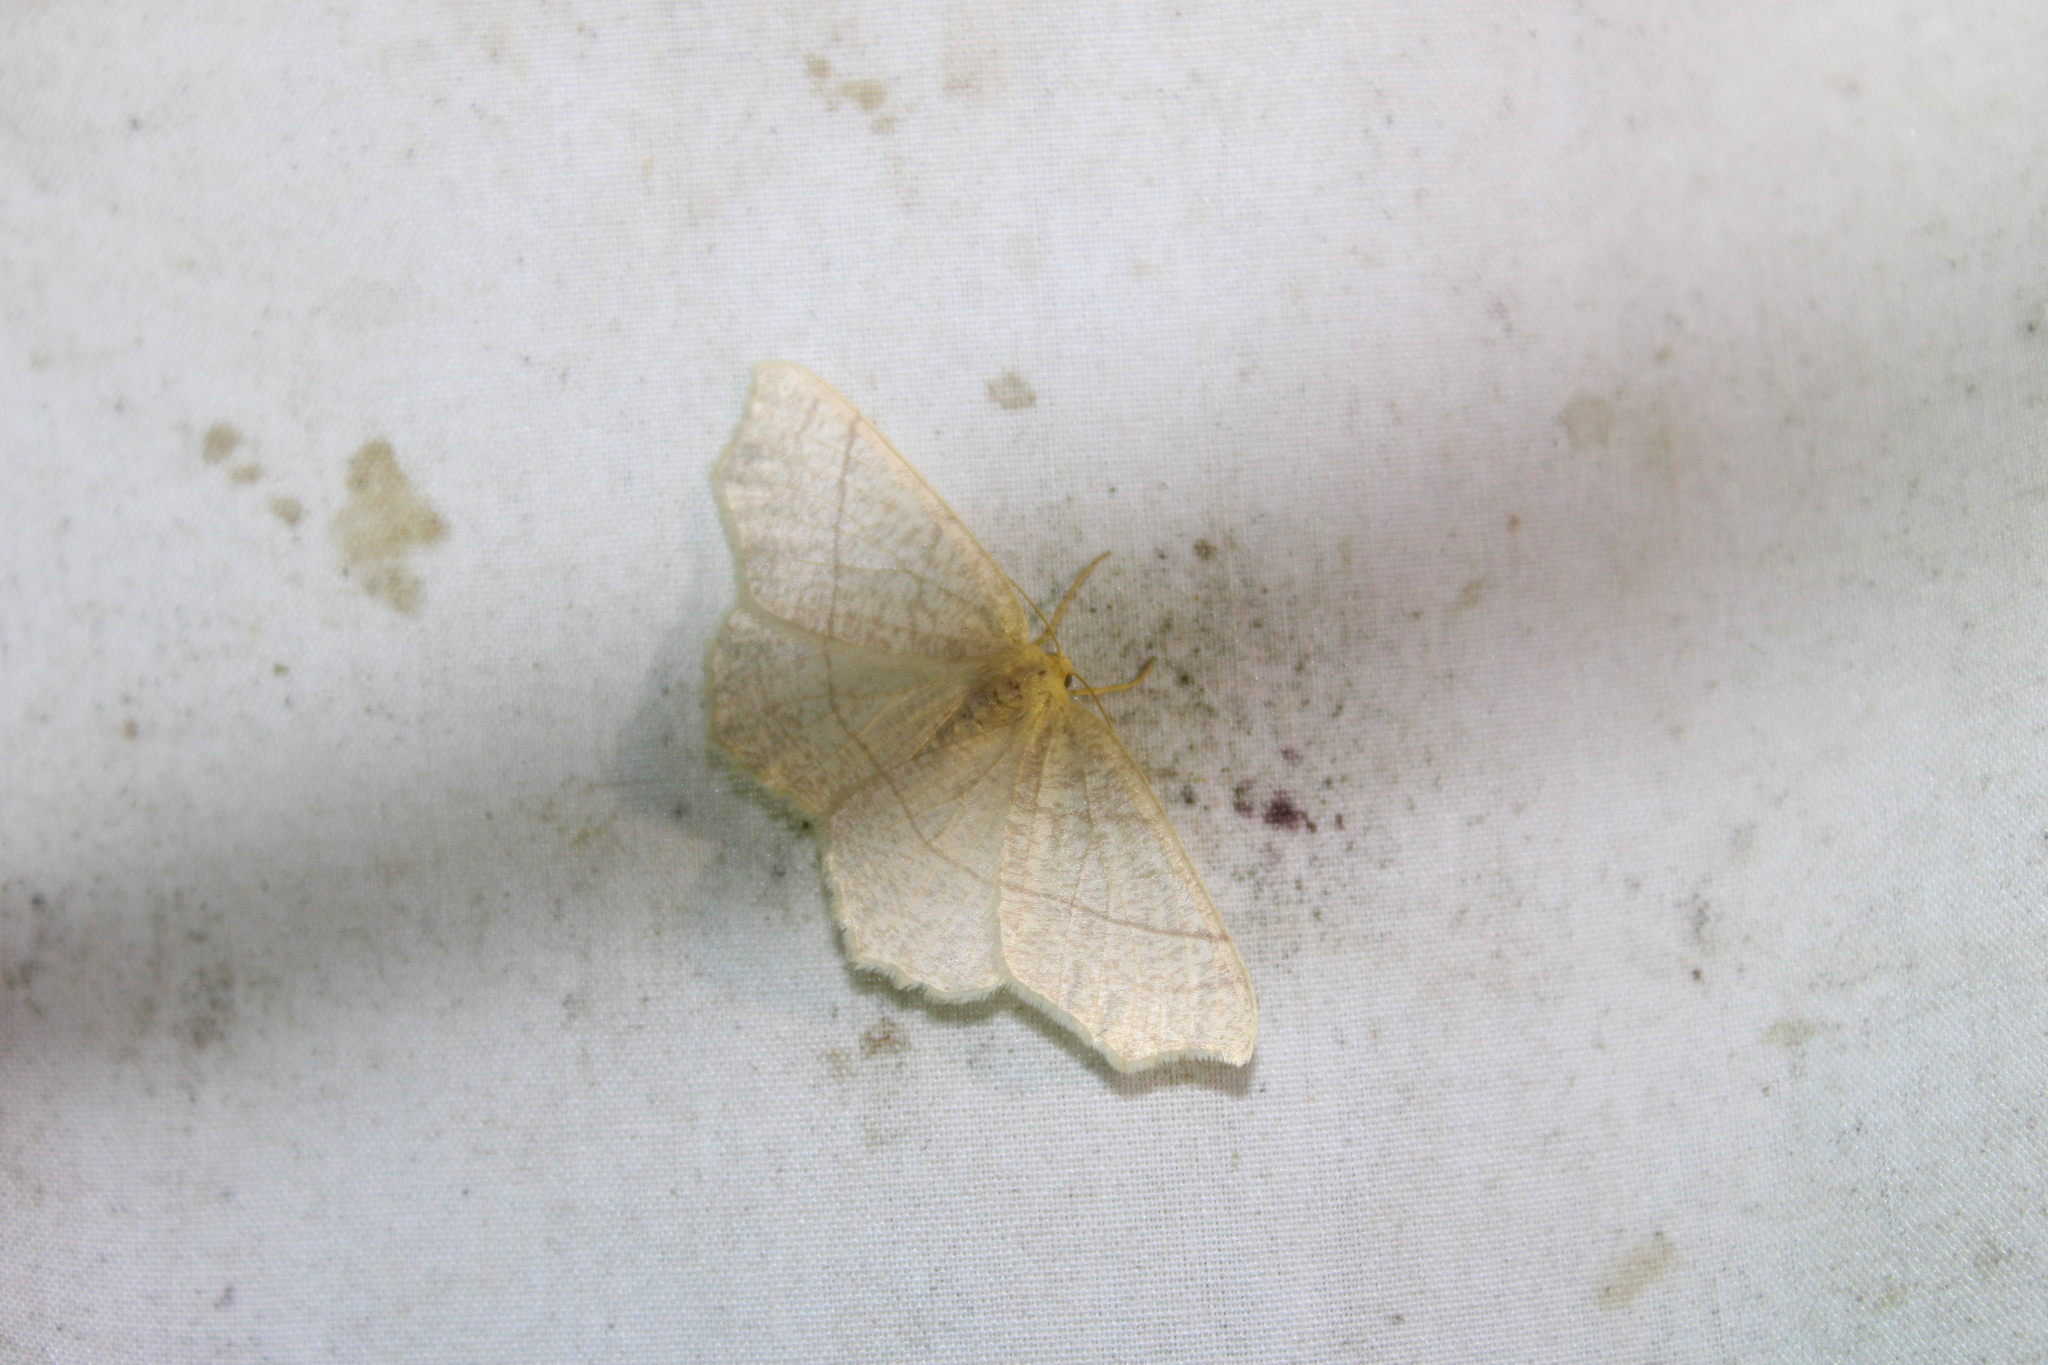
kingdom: Animalia
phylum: Arthropoda
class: Insecta
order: Lepidoptera
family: Geometridae
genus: Besma
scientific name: Besma endropiaria
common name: Straw besma
